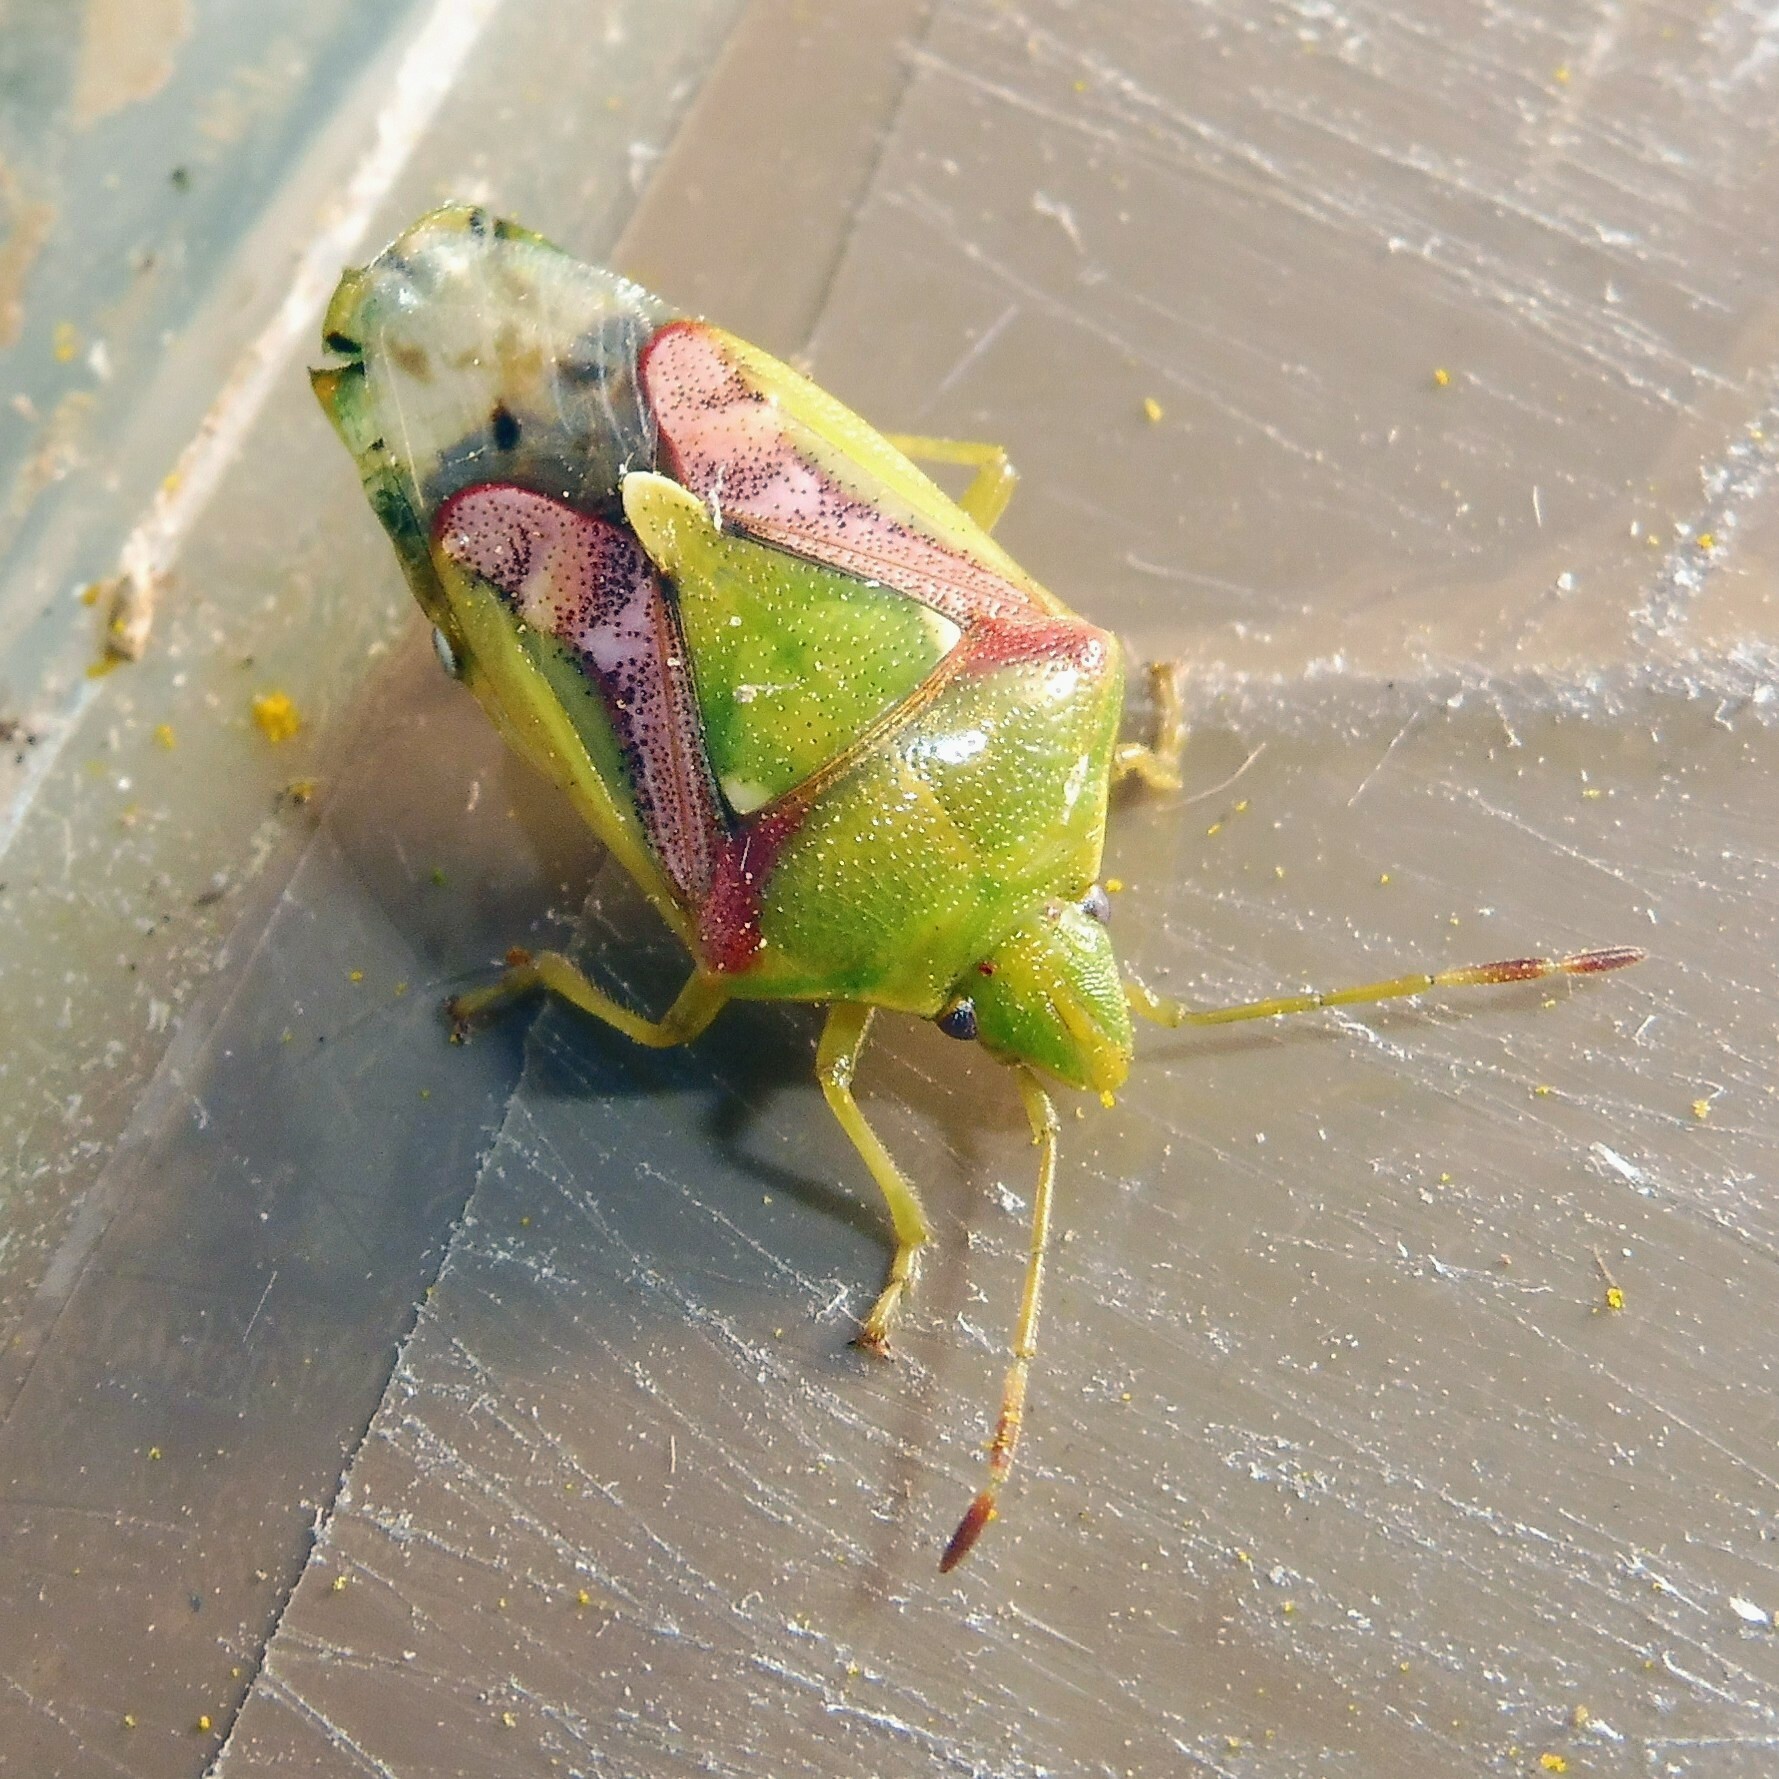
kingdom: Animalia
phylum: Arthropoda
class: Insecta
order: Hemiptera
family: Acanthosomatidae
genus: Cyphostethus
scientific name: Cyphostethus tristriatus
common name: Juniper shieldbug
